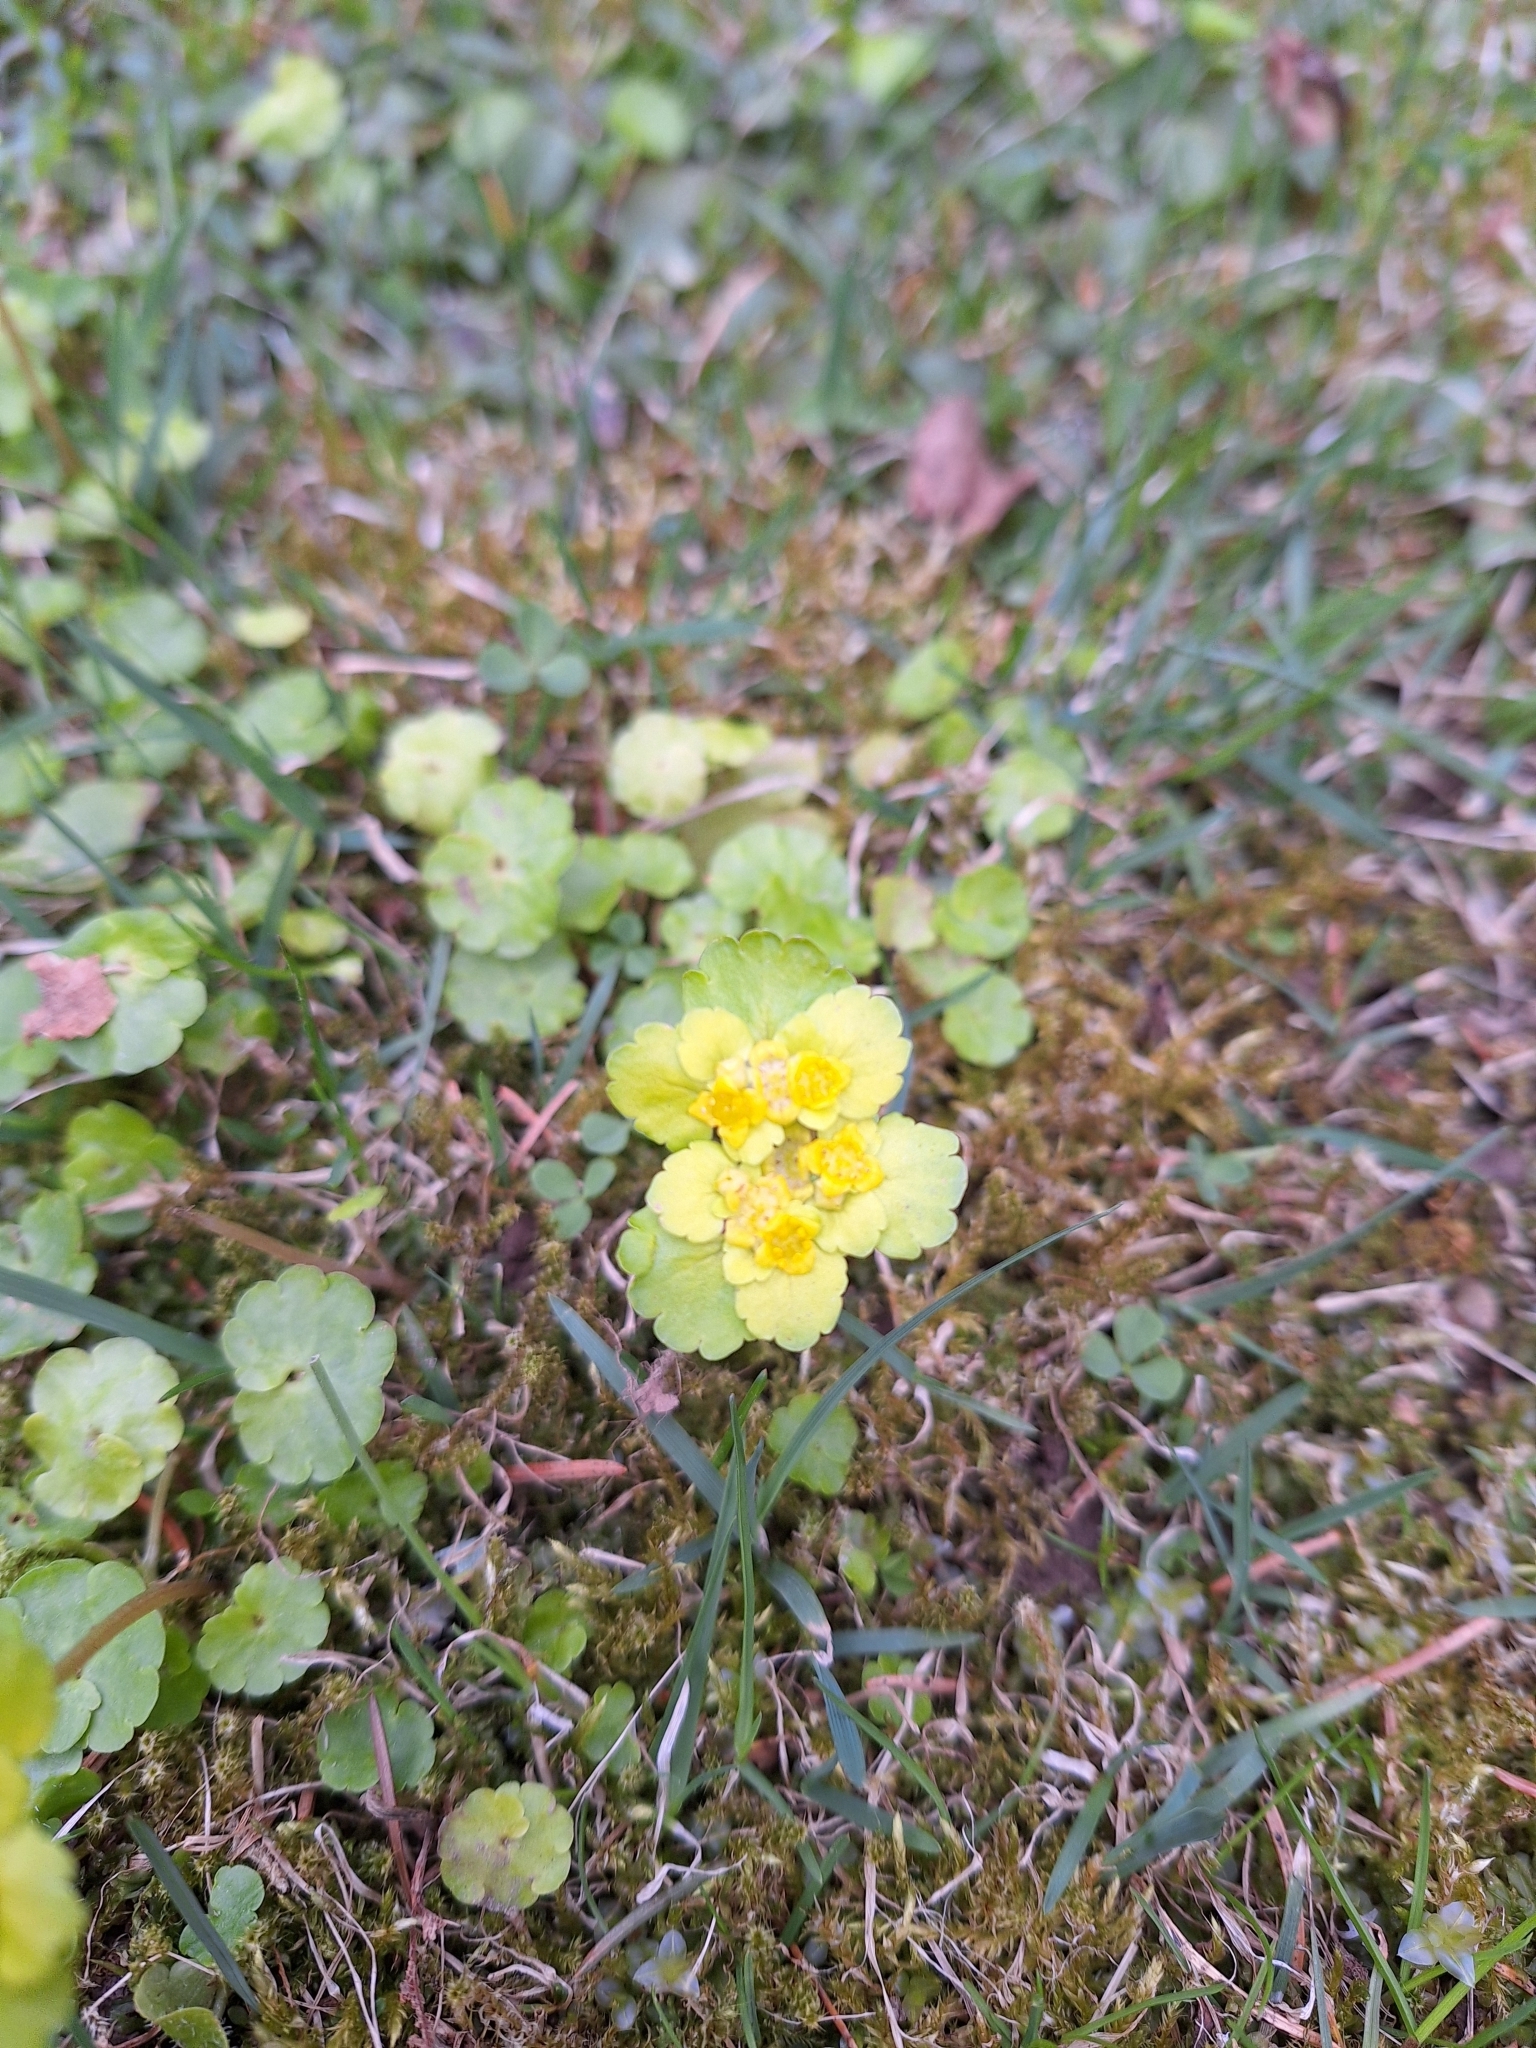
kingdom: Plantae
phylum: Tracheophyta
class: Magnoliopsida
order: Saxifragales
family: Saxifragaceae
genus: Chrysosplenium
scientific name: Chrysosplenium alternifolium
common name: Alternate-leaved golden-saxifrage
